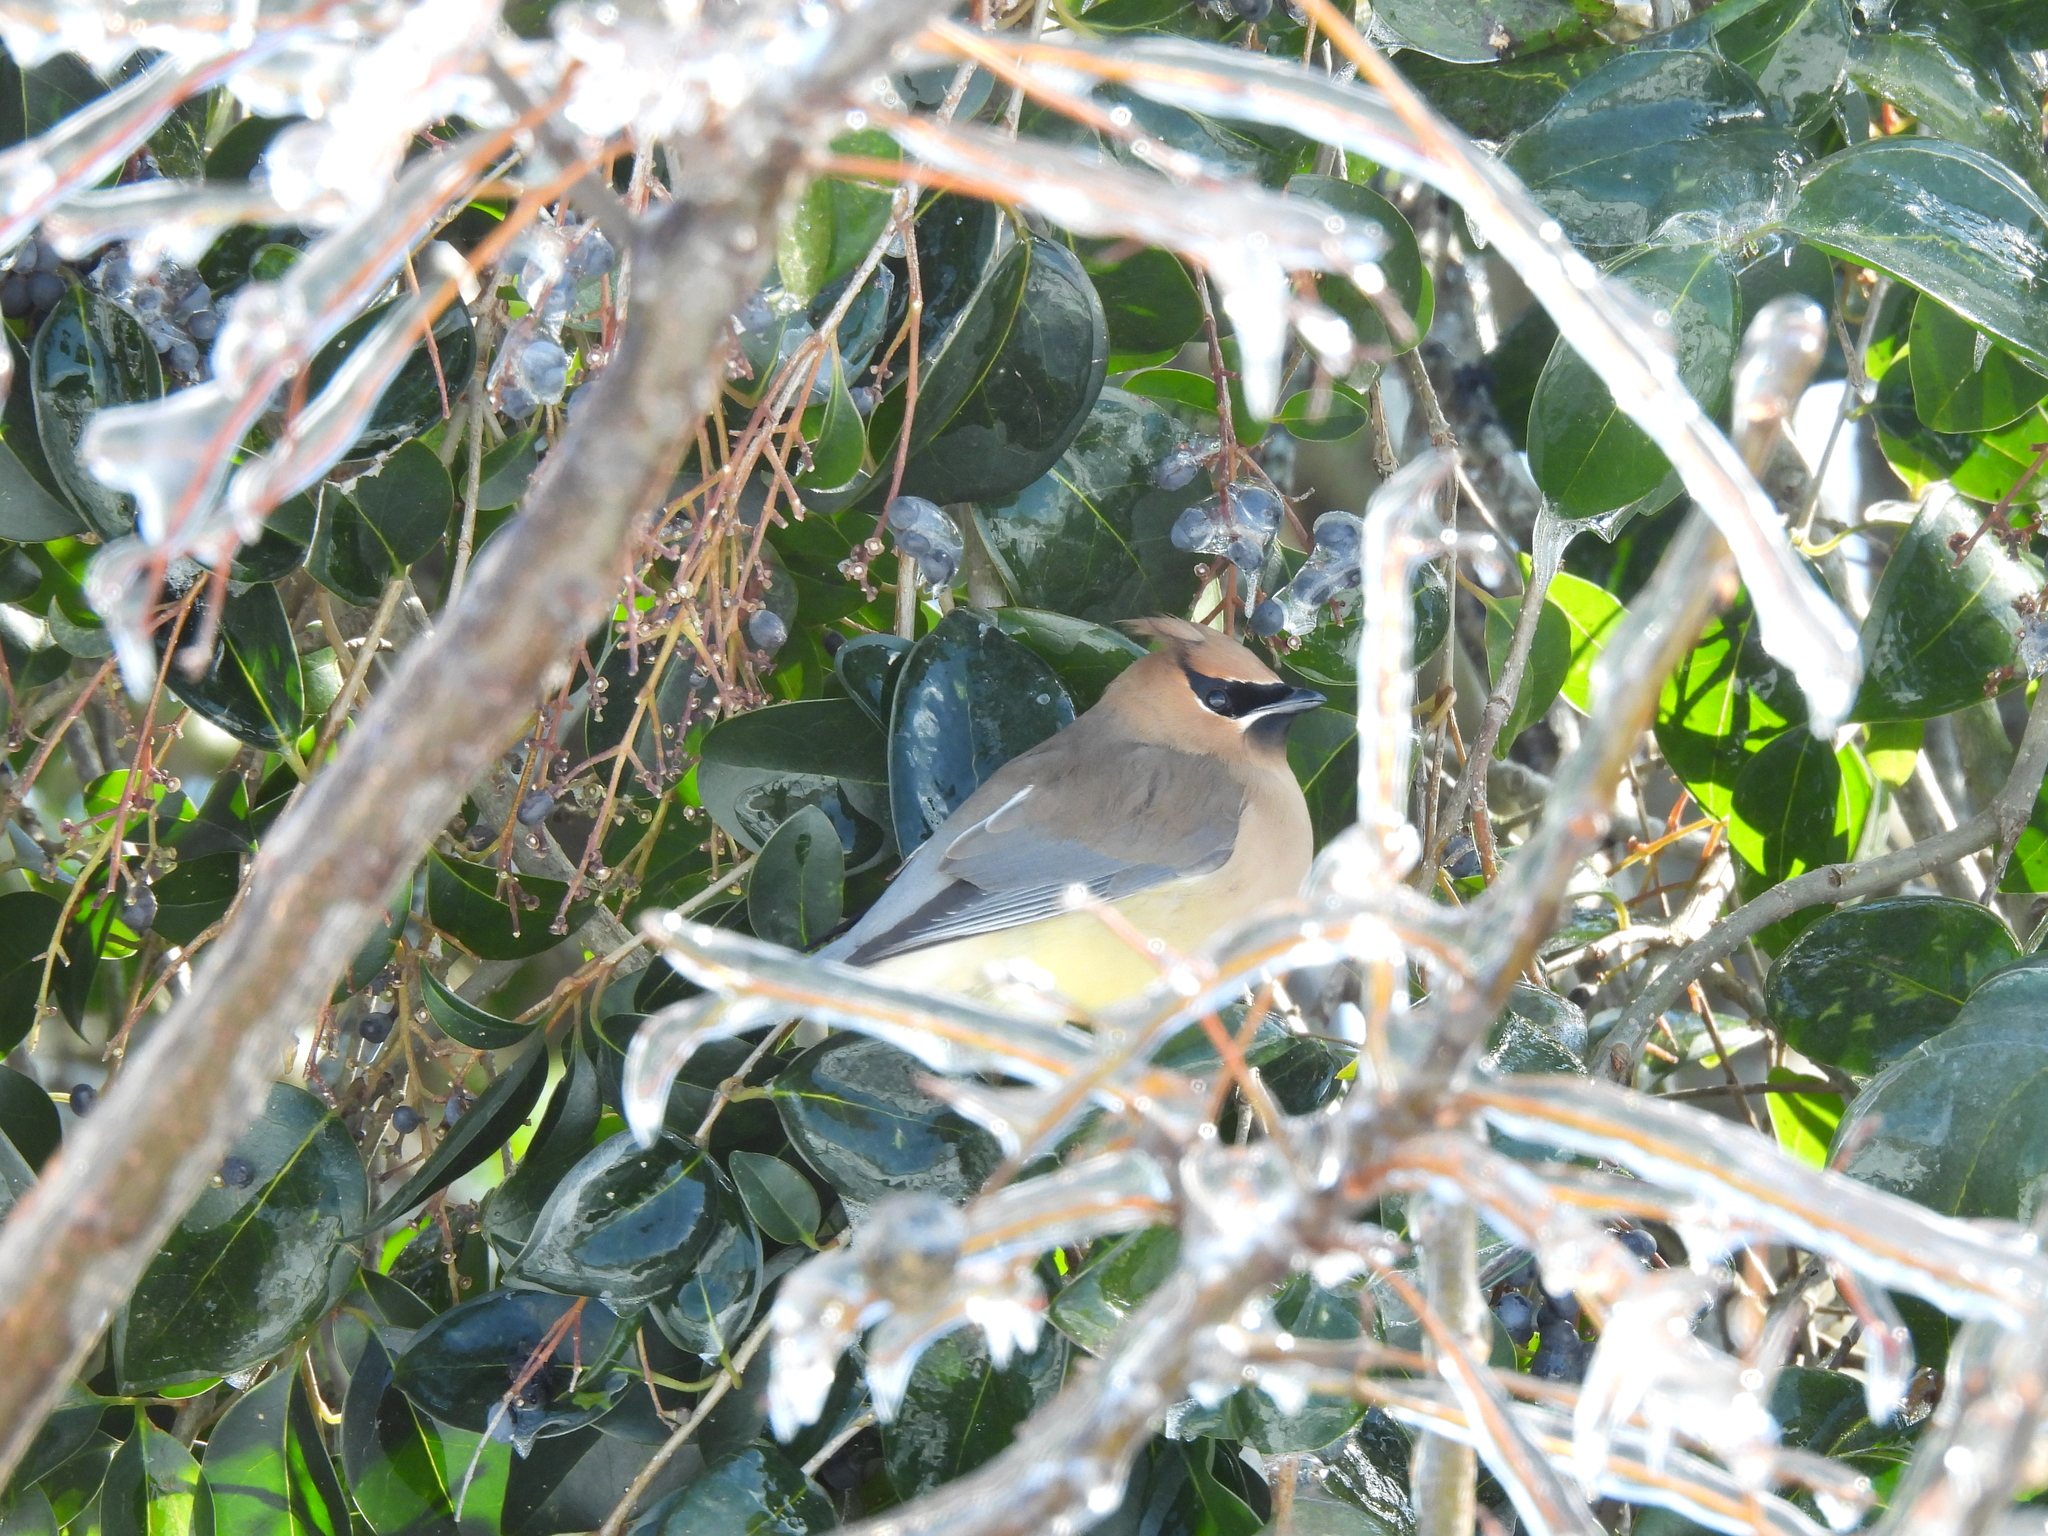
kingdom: Animalia
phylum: Chordata
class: Aves
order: Passeriformes
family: Bombycillidae
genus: Bombycilla
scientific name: Bombycilla cedrorum
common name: Cedar waxwing
